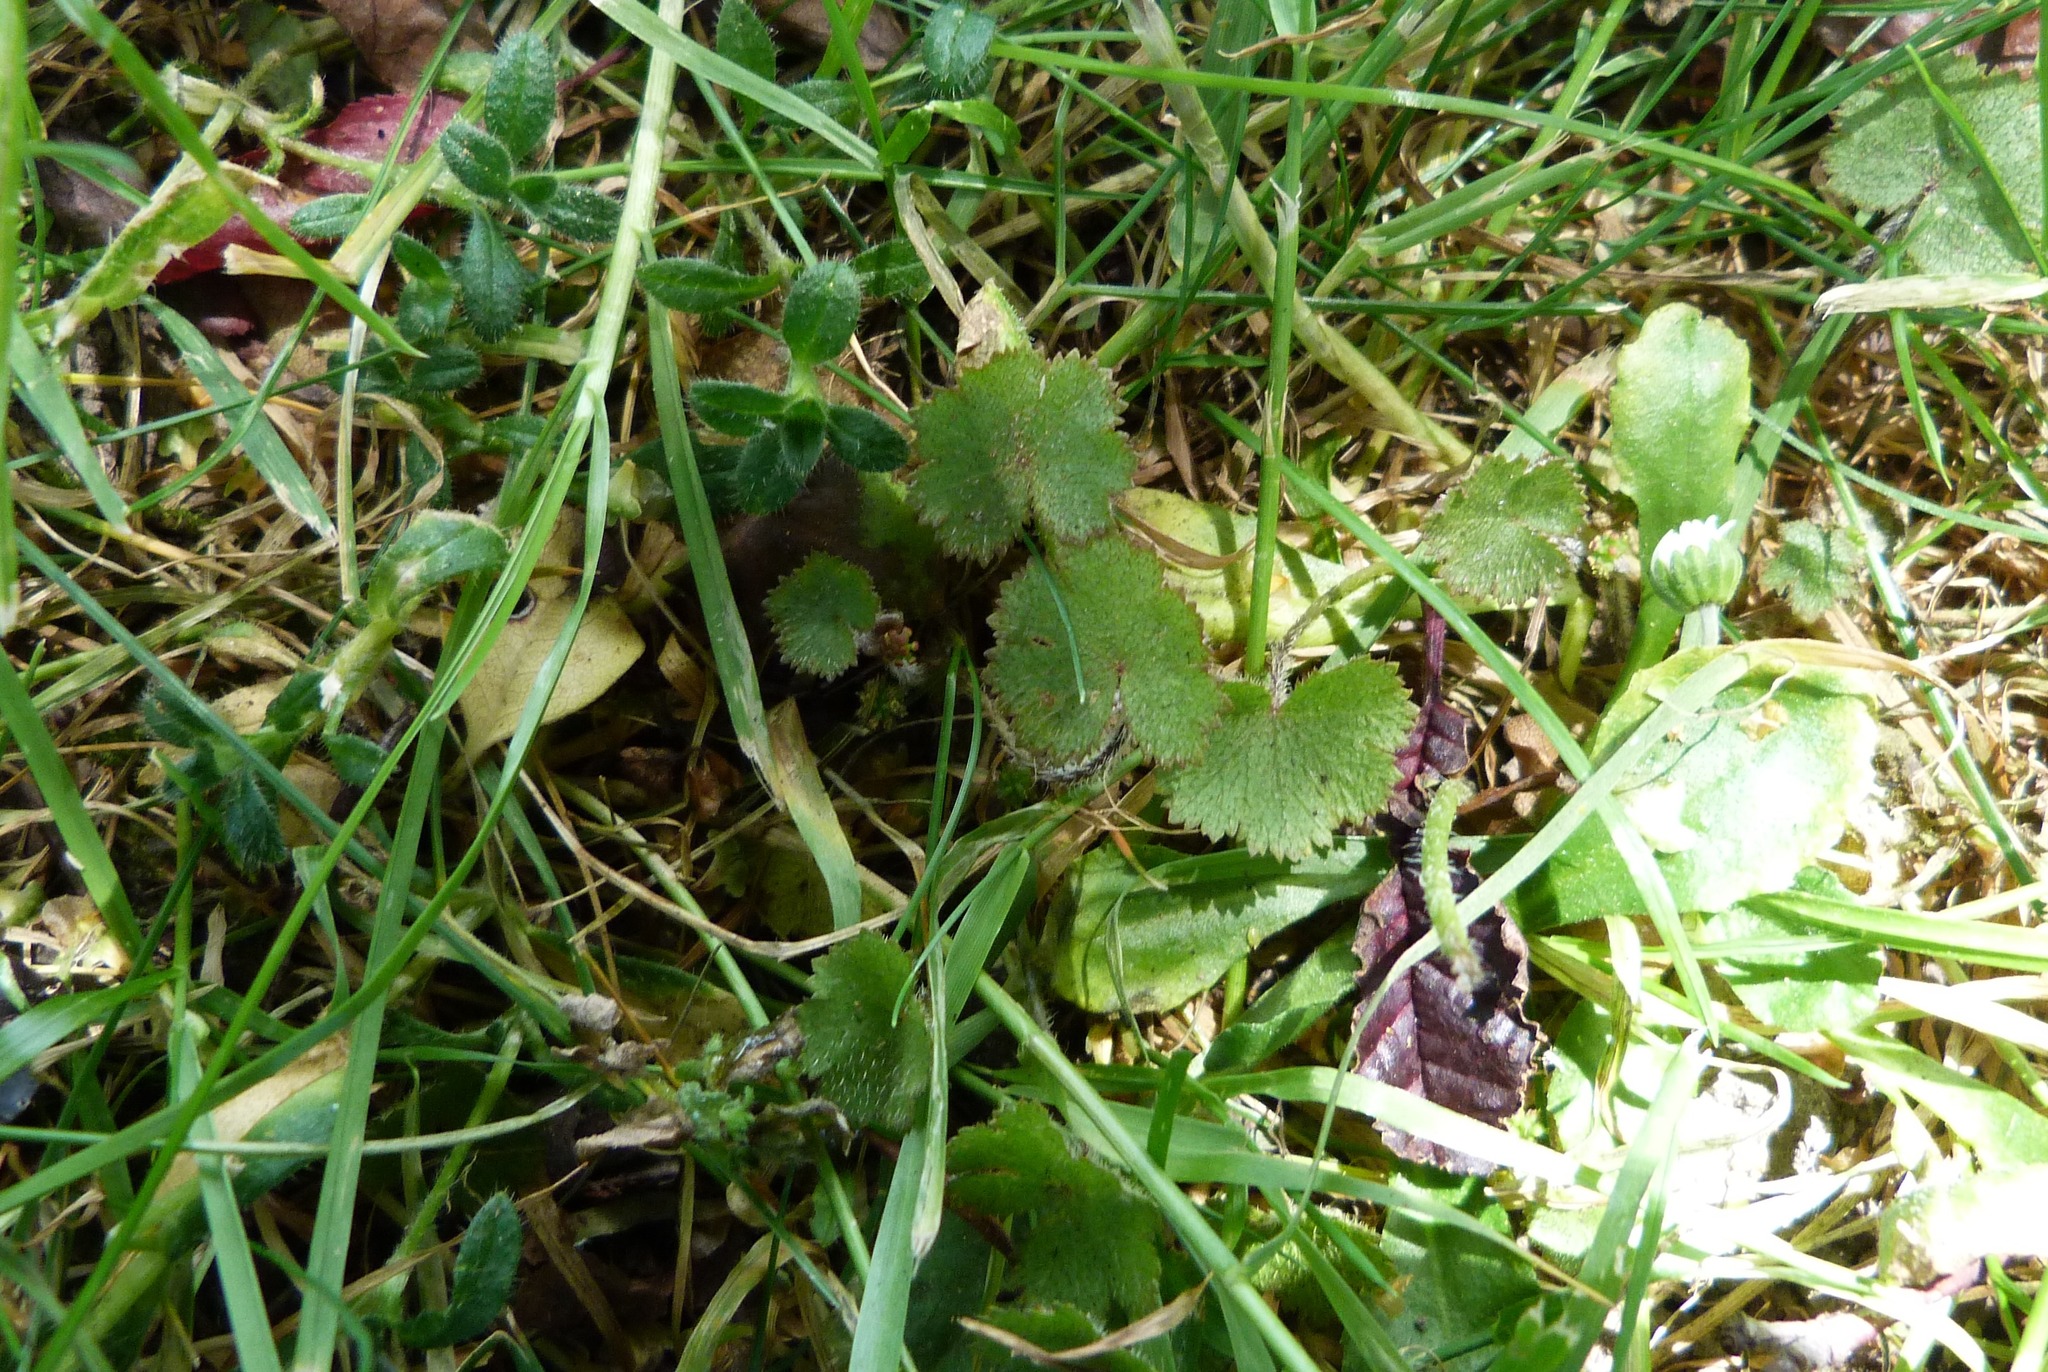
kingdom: Plantae
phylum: Tracheophyta
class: Magnoliopsida
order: Apiales
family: Araliaceae
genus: Hydrocotyle
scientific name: Hydrocotyle moschata
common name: Hairy pennywort
